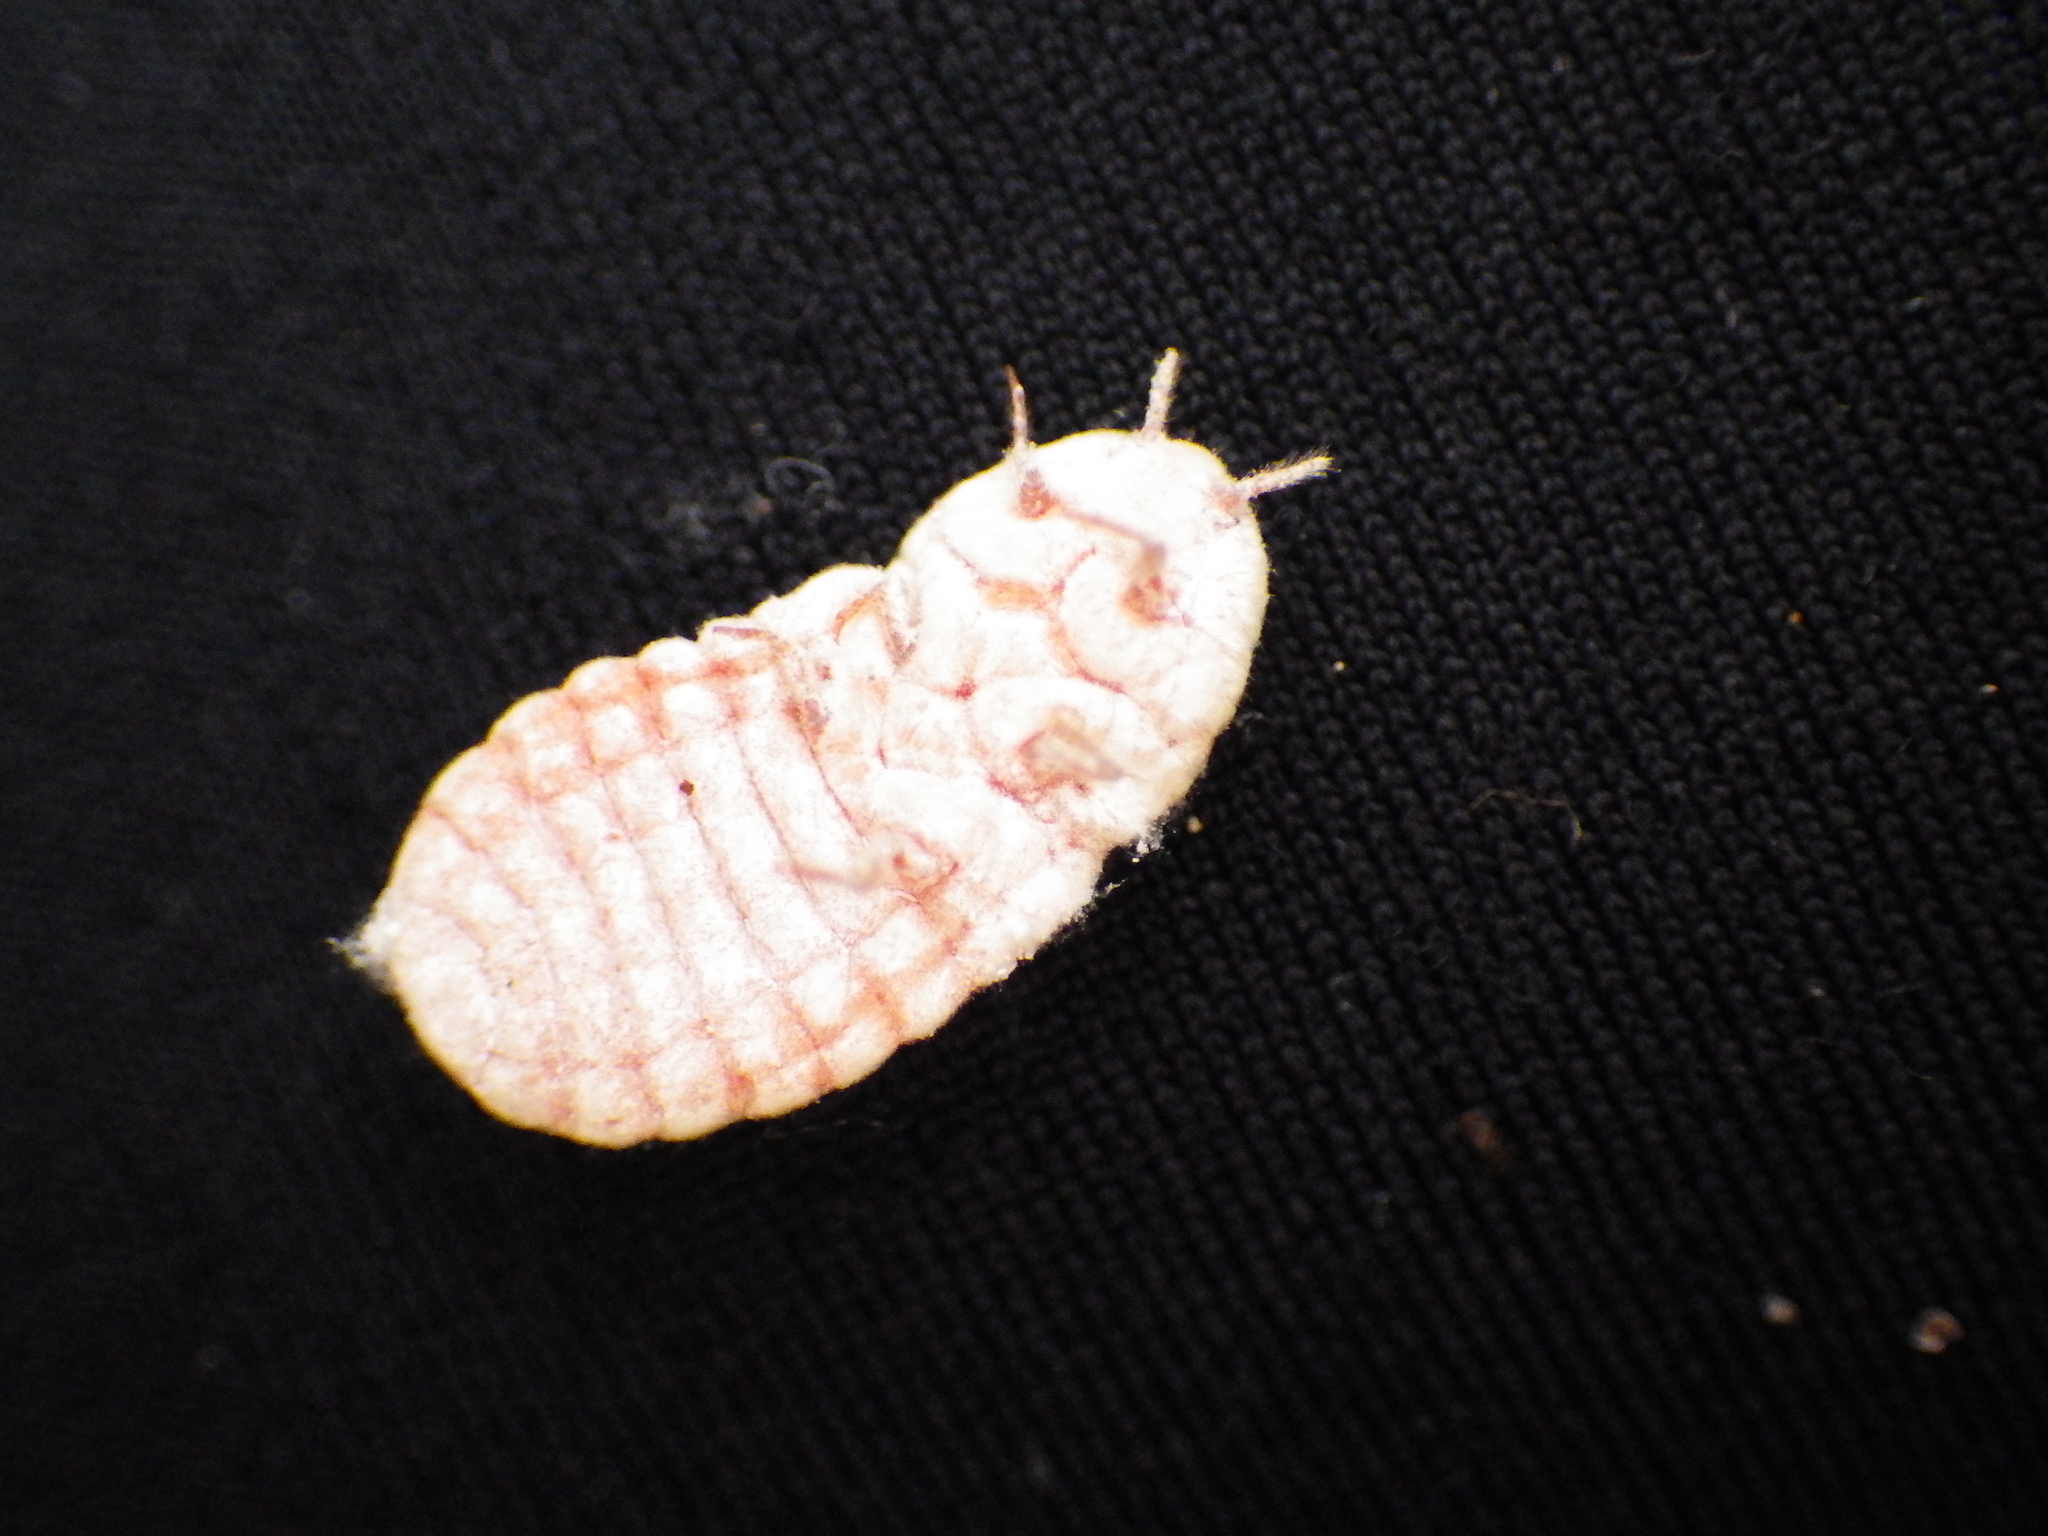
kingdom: Animalia
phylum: Arthropoda
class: Insecta
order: Hemiptera
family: Margarodidae
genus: Coelostomidia
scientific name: Coelostomidia zealandica
